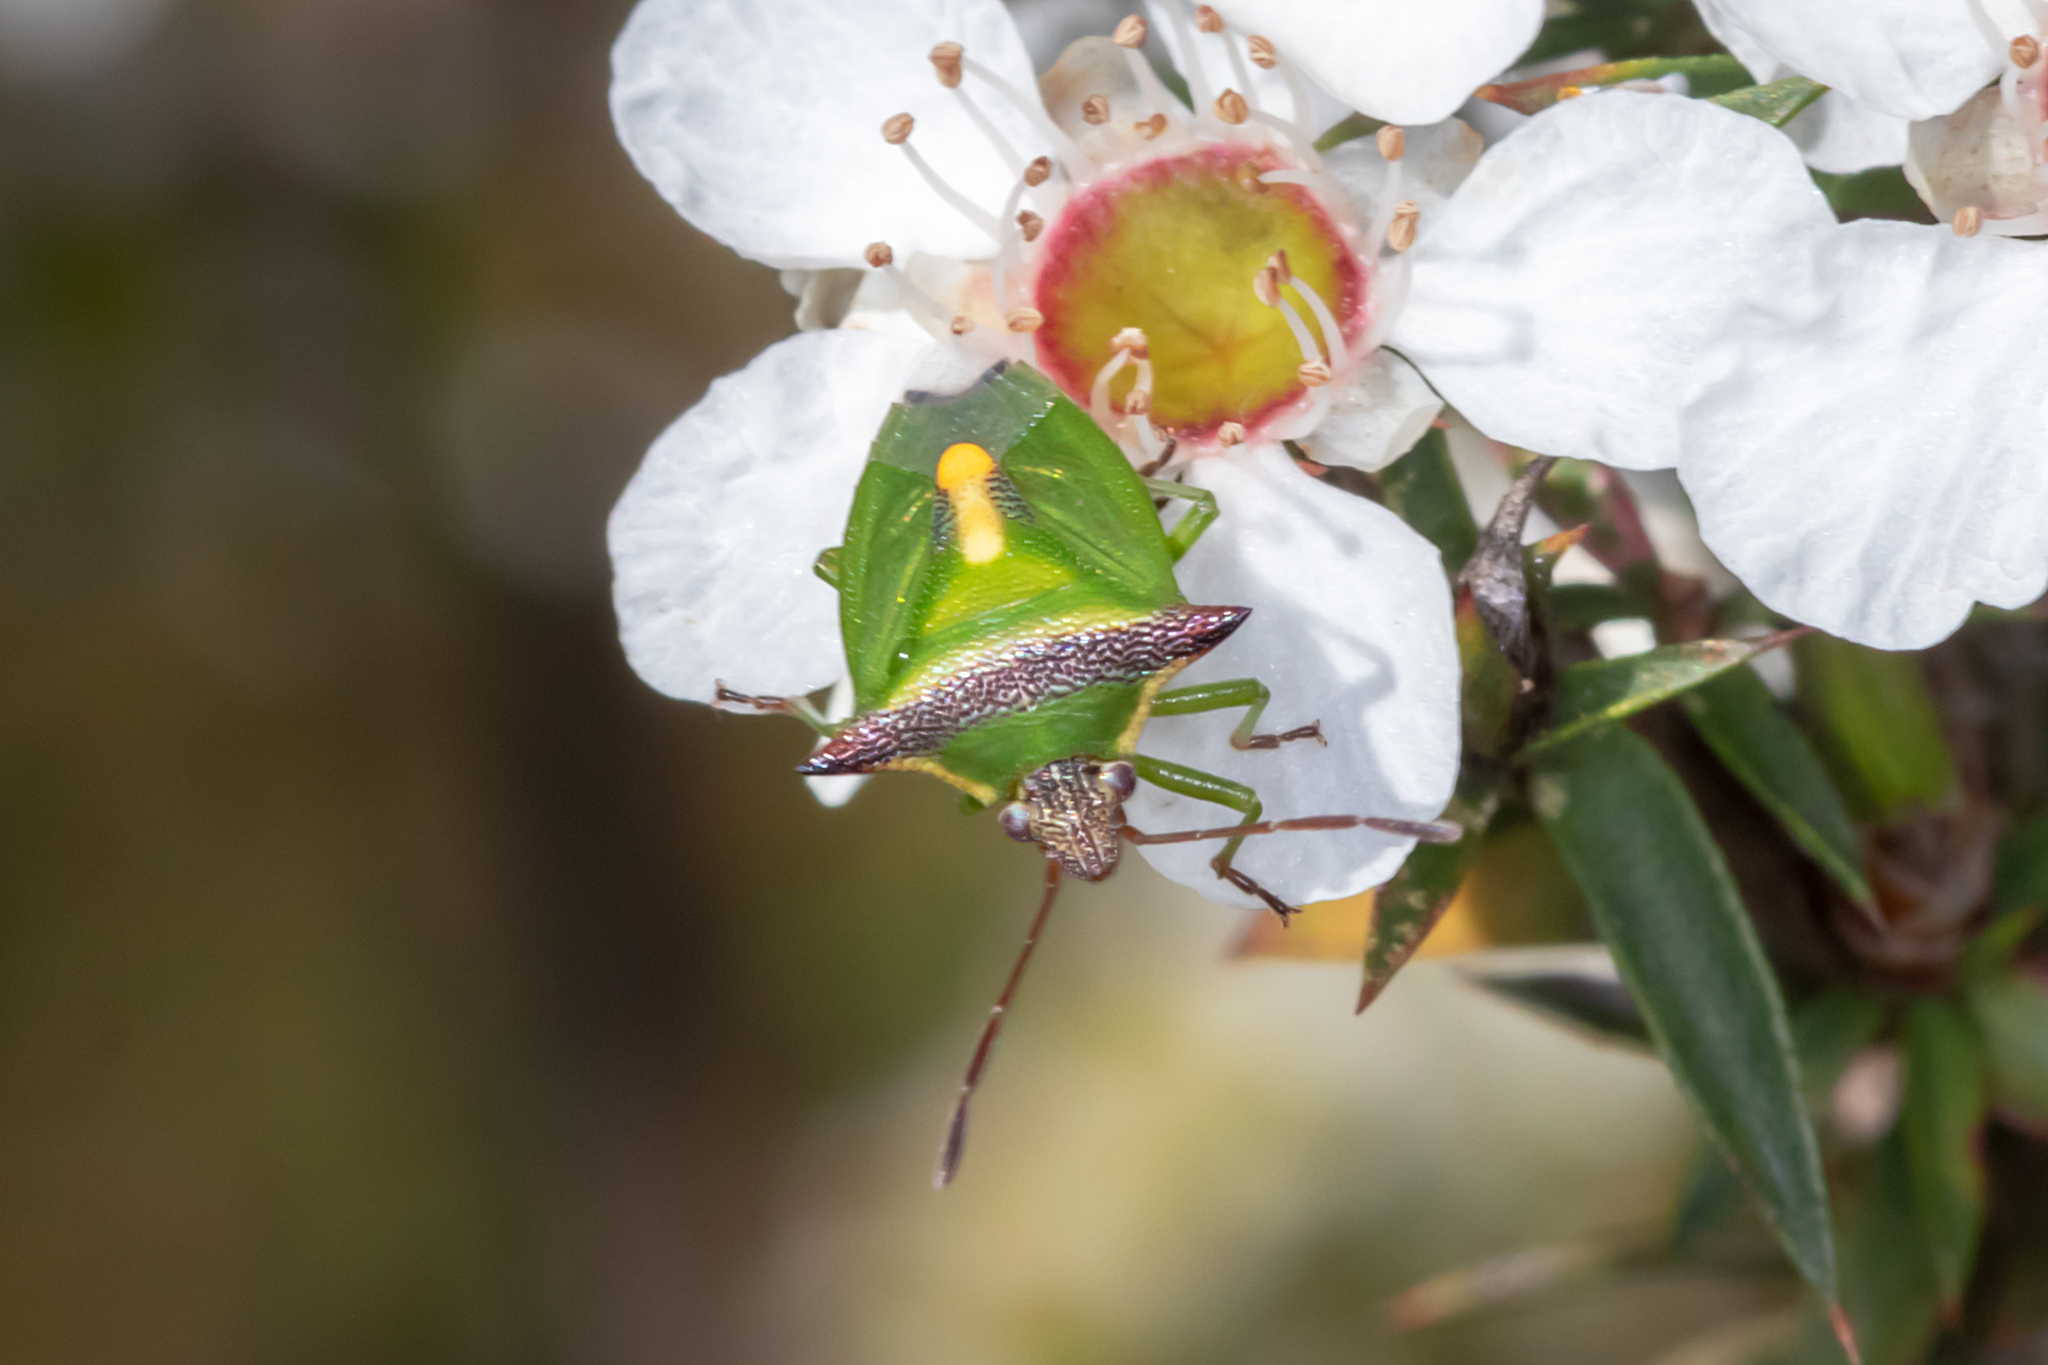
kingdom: Animalia
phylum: Arthropoda
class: Insecta
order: Hemiptera
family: Pentatomidae
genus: Cuspicona
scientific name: Cuspicona
